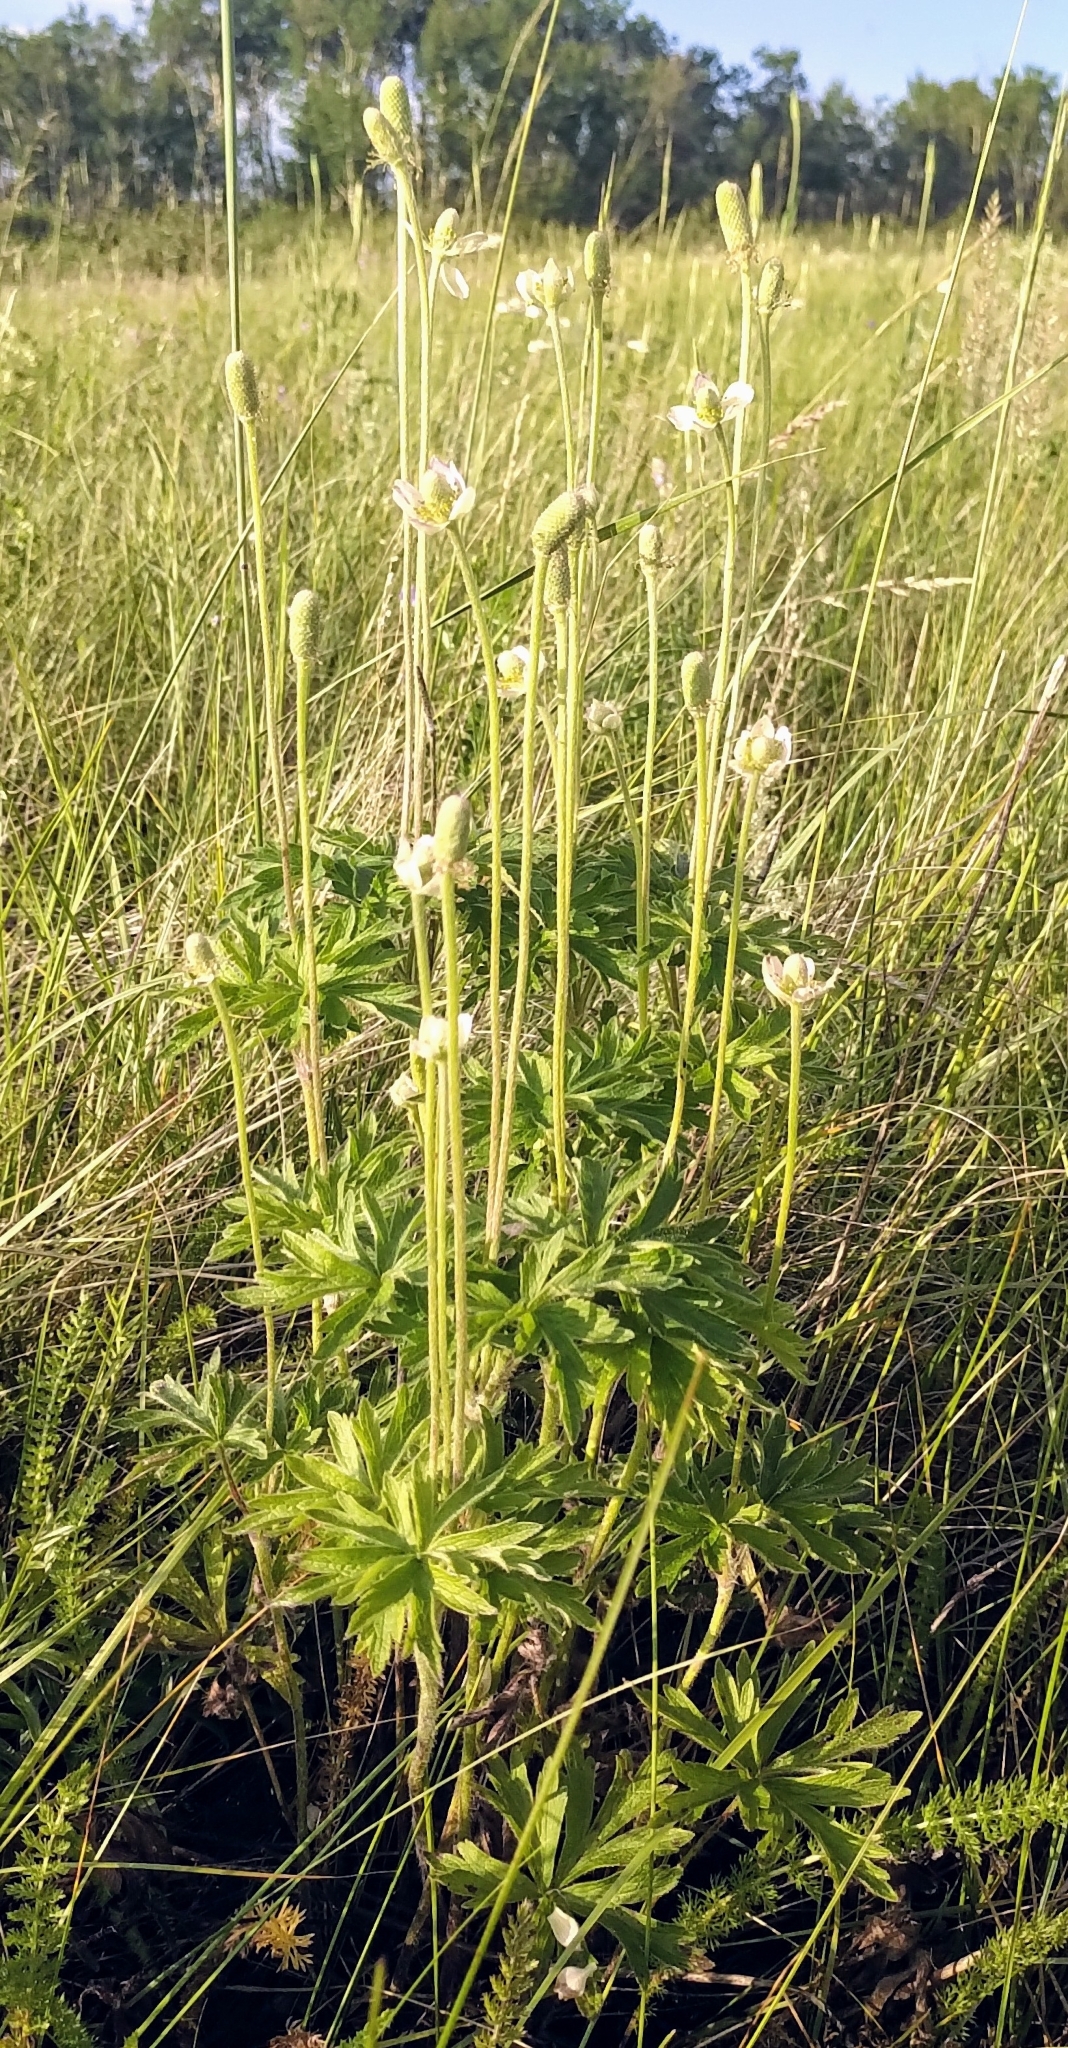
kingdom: Plantae
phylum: Tracheophyta
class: Magnoliopsida
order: Ranunculales
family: Ranunculaceae
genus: Anemone
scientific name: Anemone cylindrica
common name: Candle anemone
